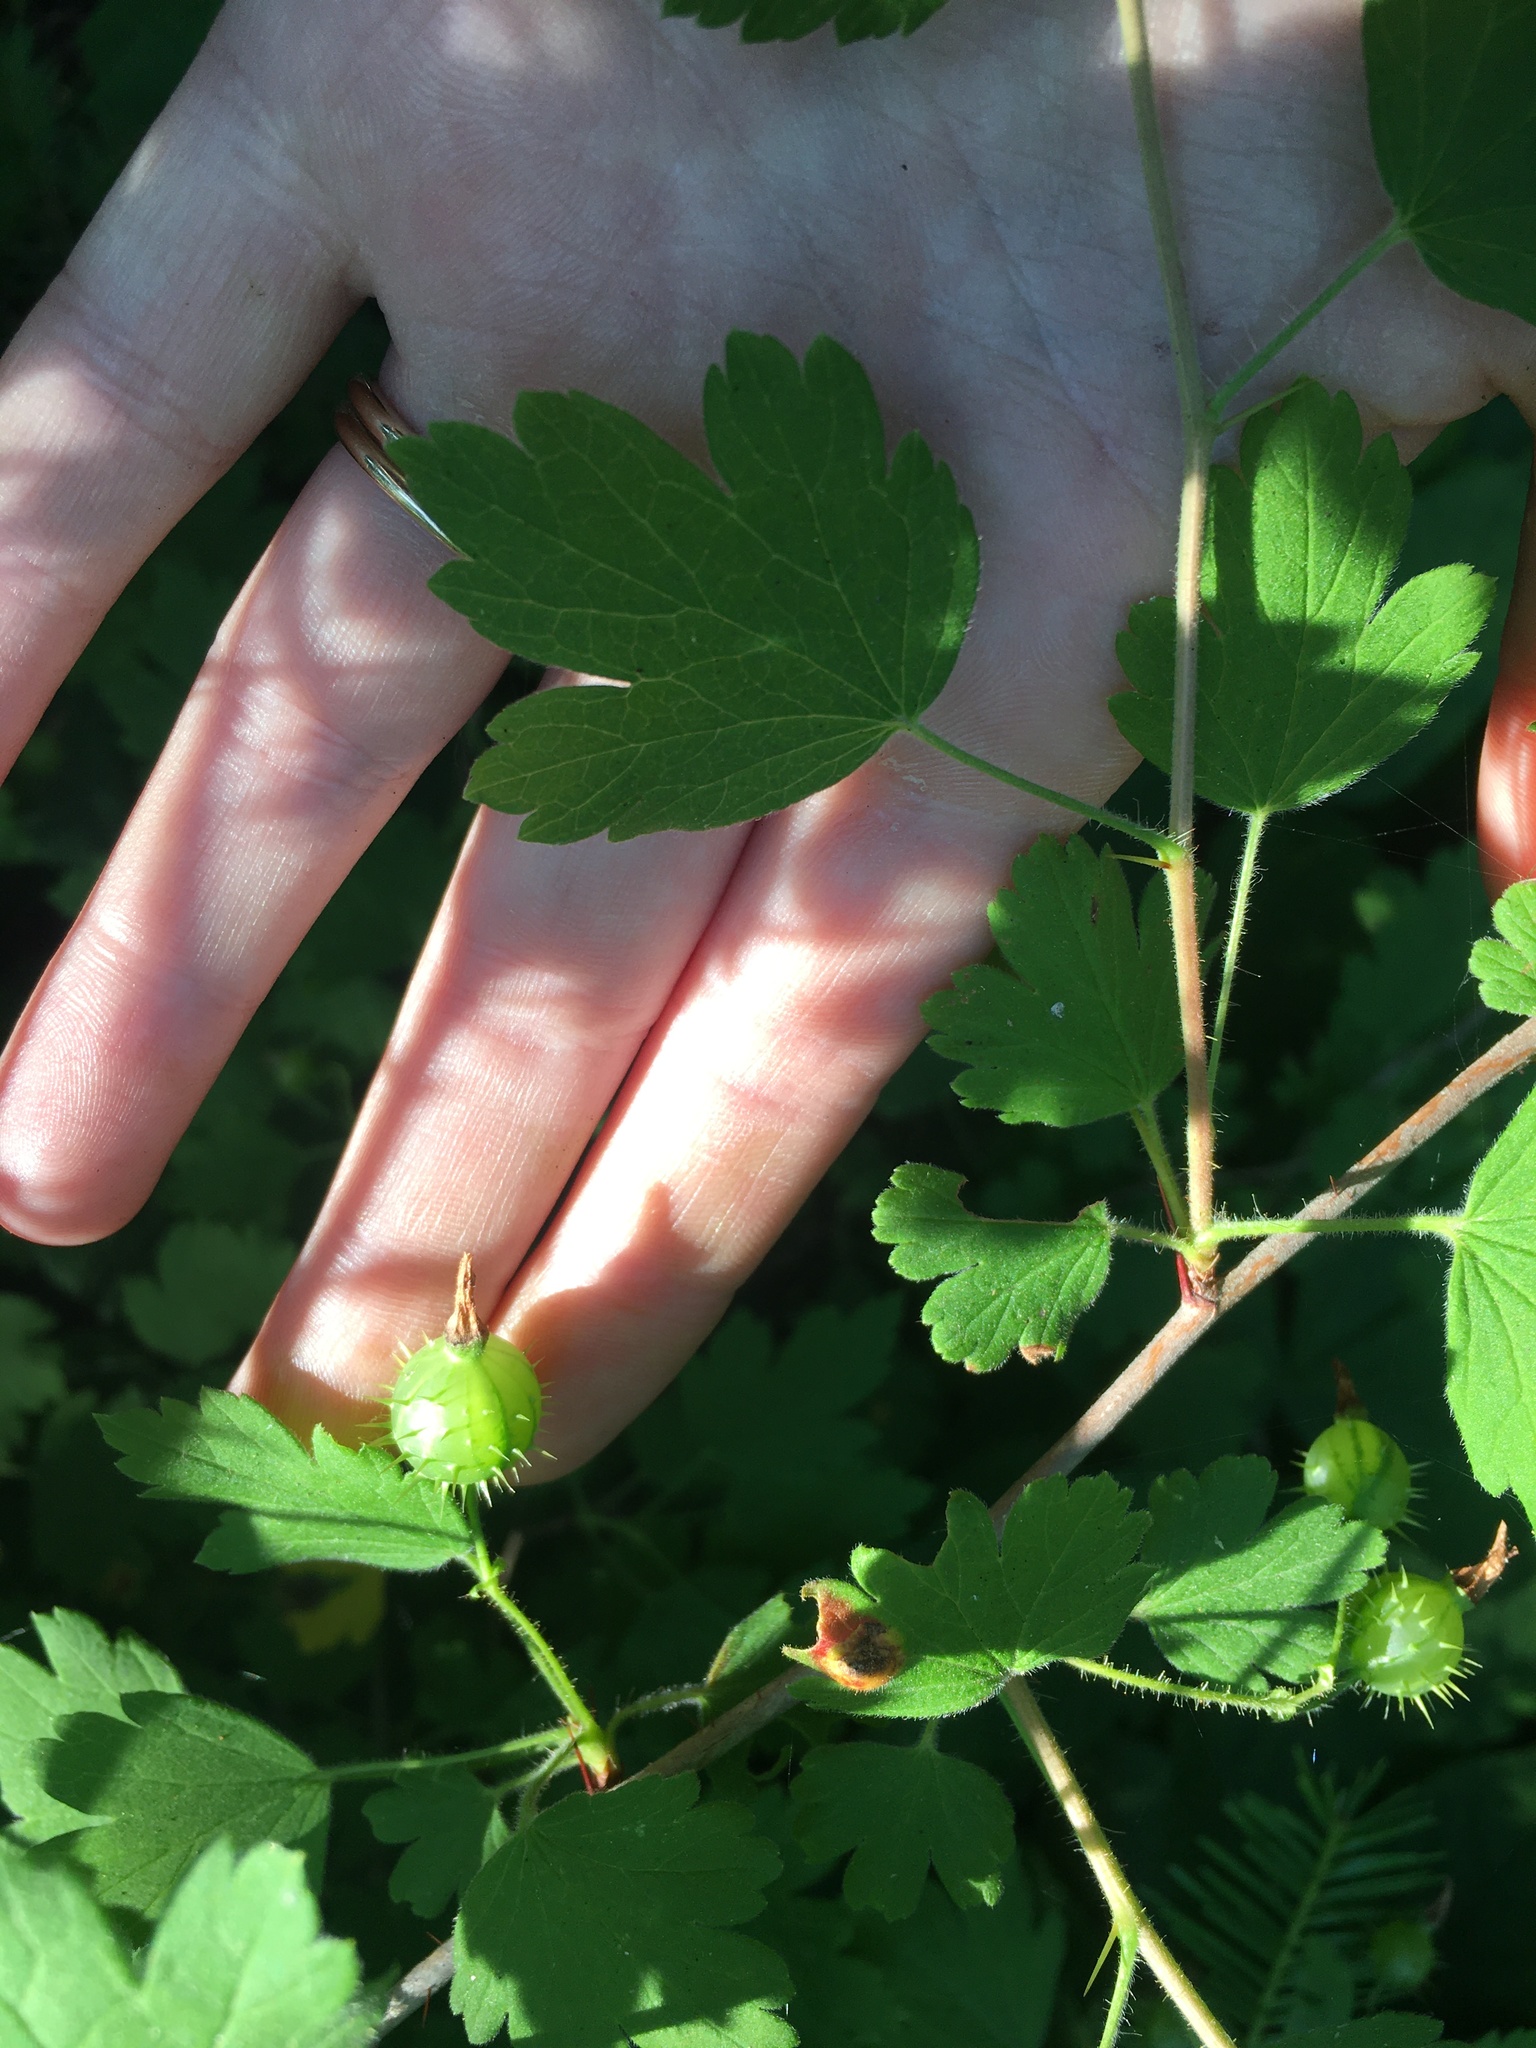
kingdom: Plantae
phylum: Tracheophyta
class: Magnoliopsida
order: Saxifragales
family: Grossulariaceae
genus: Ribes
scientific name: Ribes cynosbati
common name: American gooseberry
